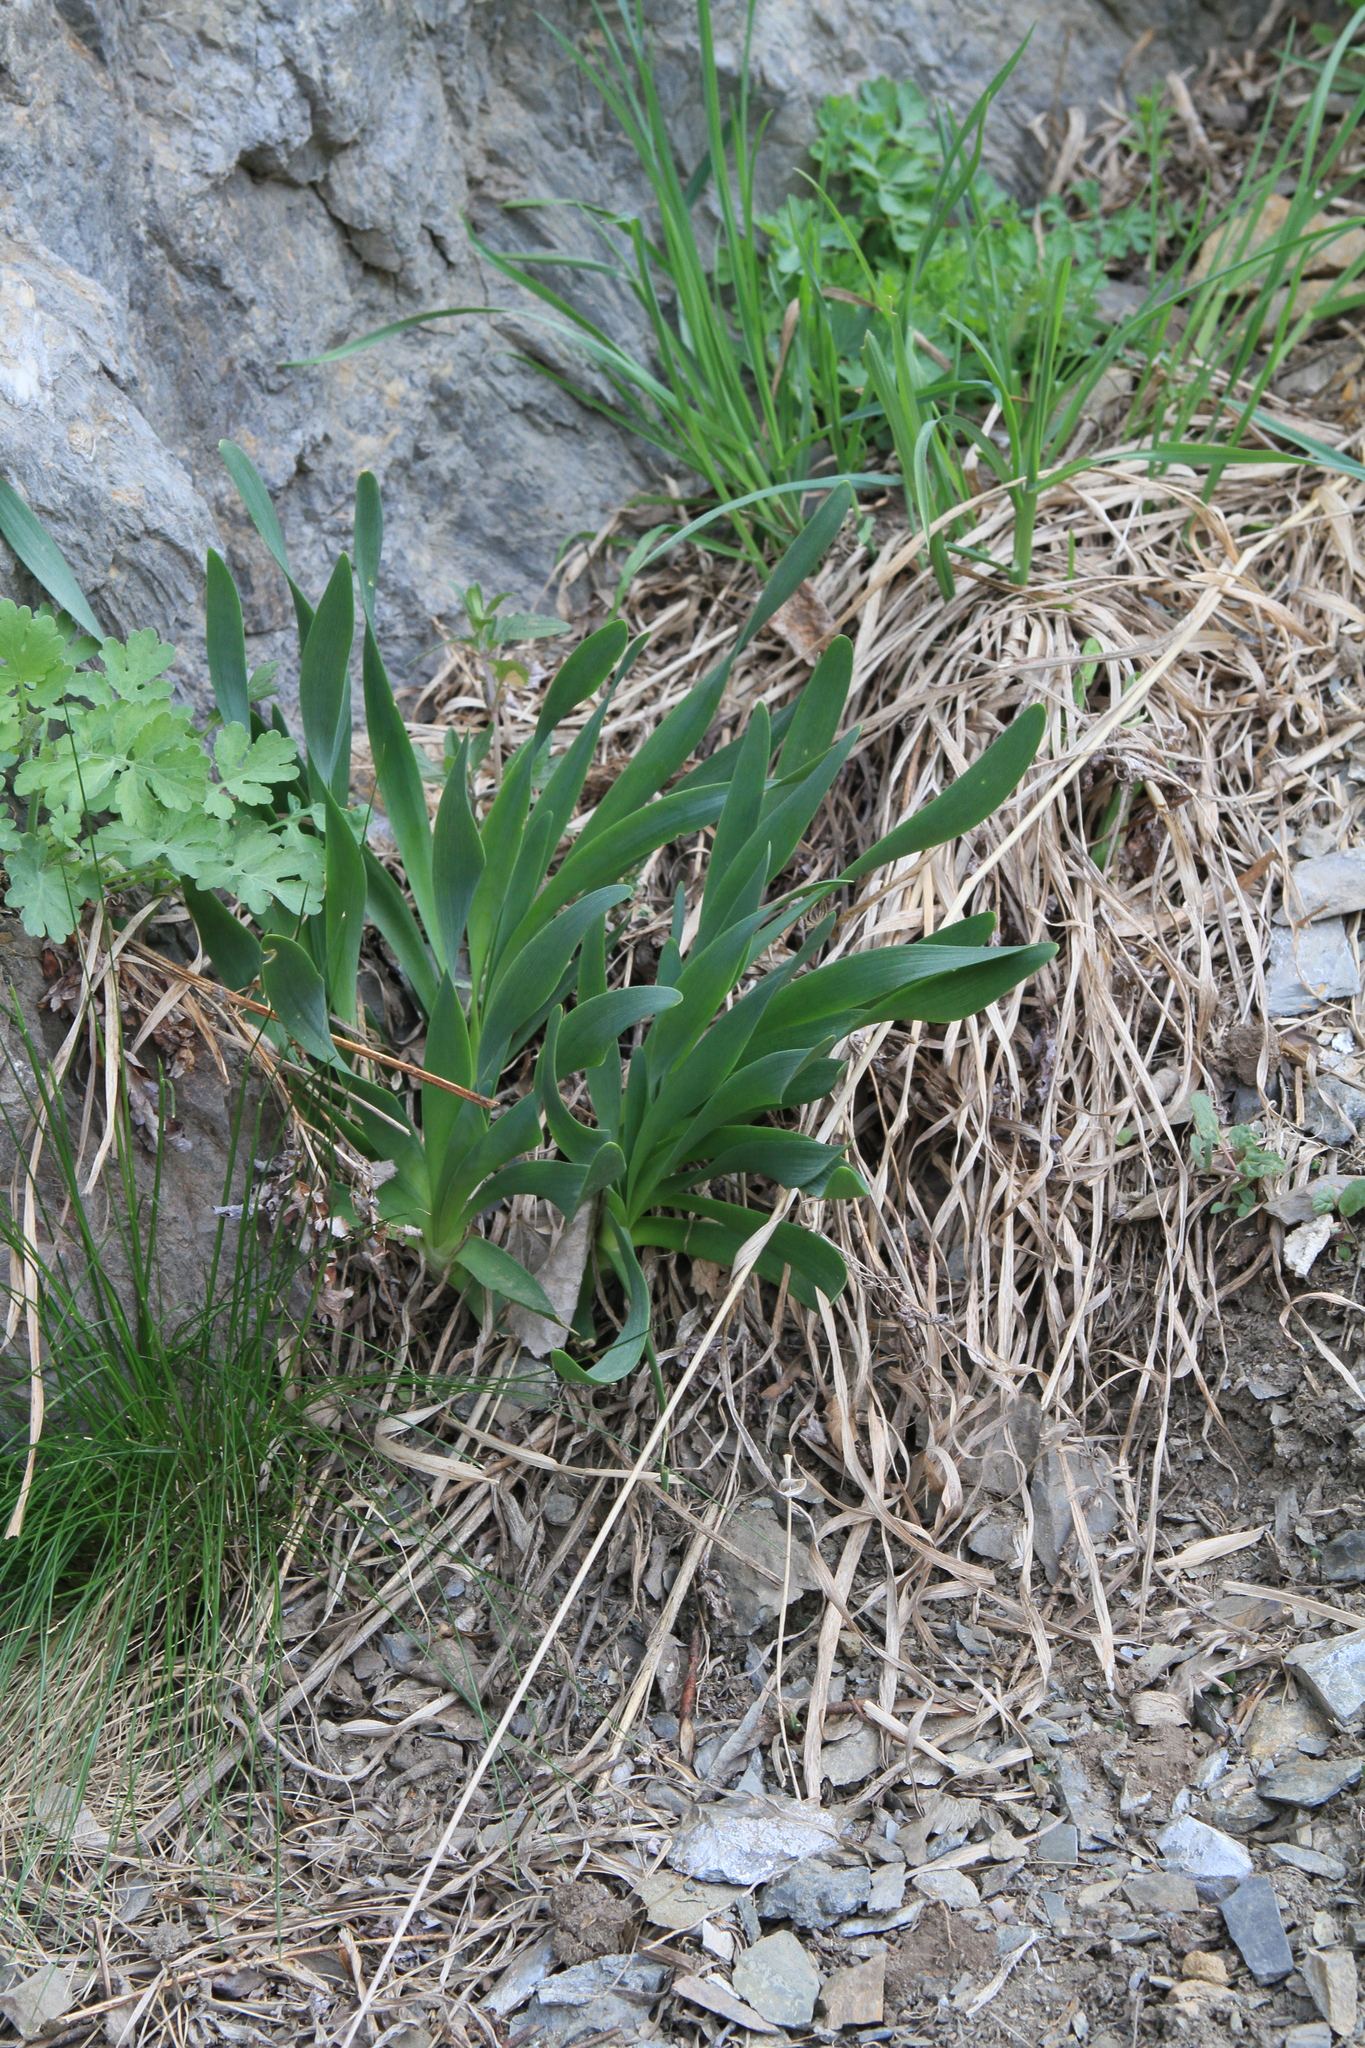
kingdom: Plantae
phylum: Tracheophyta
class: Liliopsida
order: Asparagales
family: Amaryllidaceae
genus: Allium
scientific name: Allium nutans
